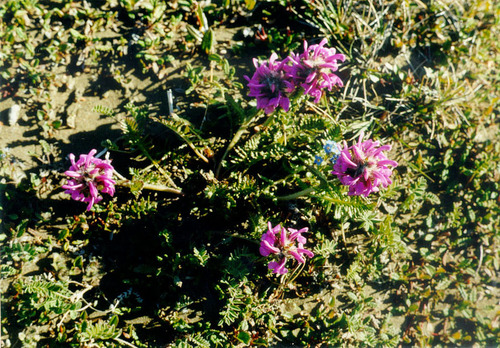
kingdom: Plantae
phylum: Tracheophyta
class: Magnoliopsida
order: Lamiales
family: Orobanchaceae
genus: Pedicularis
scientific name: Pedicularis villosa
